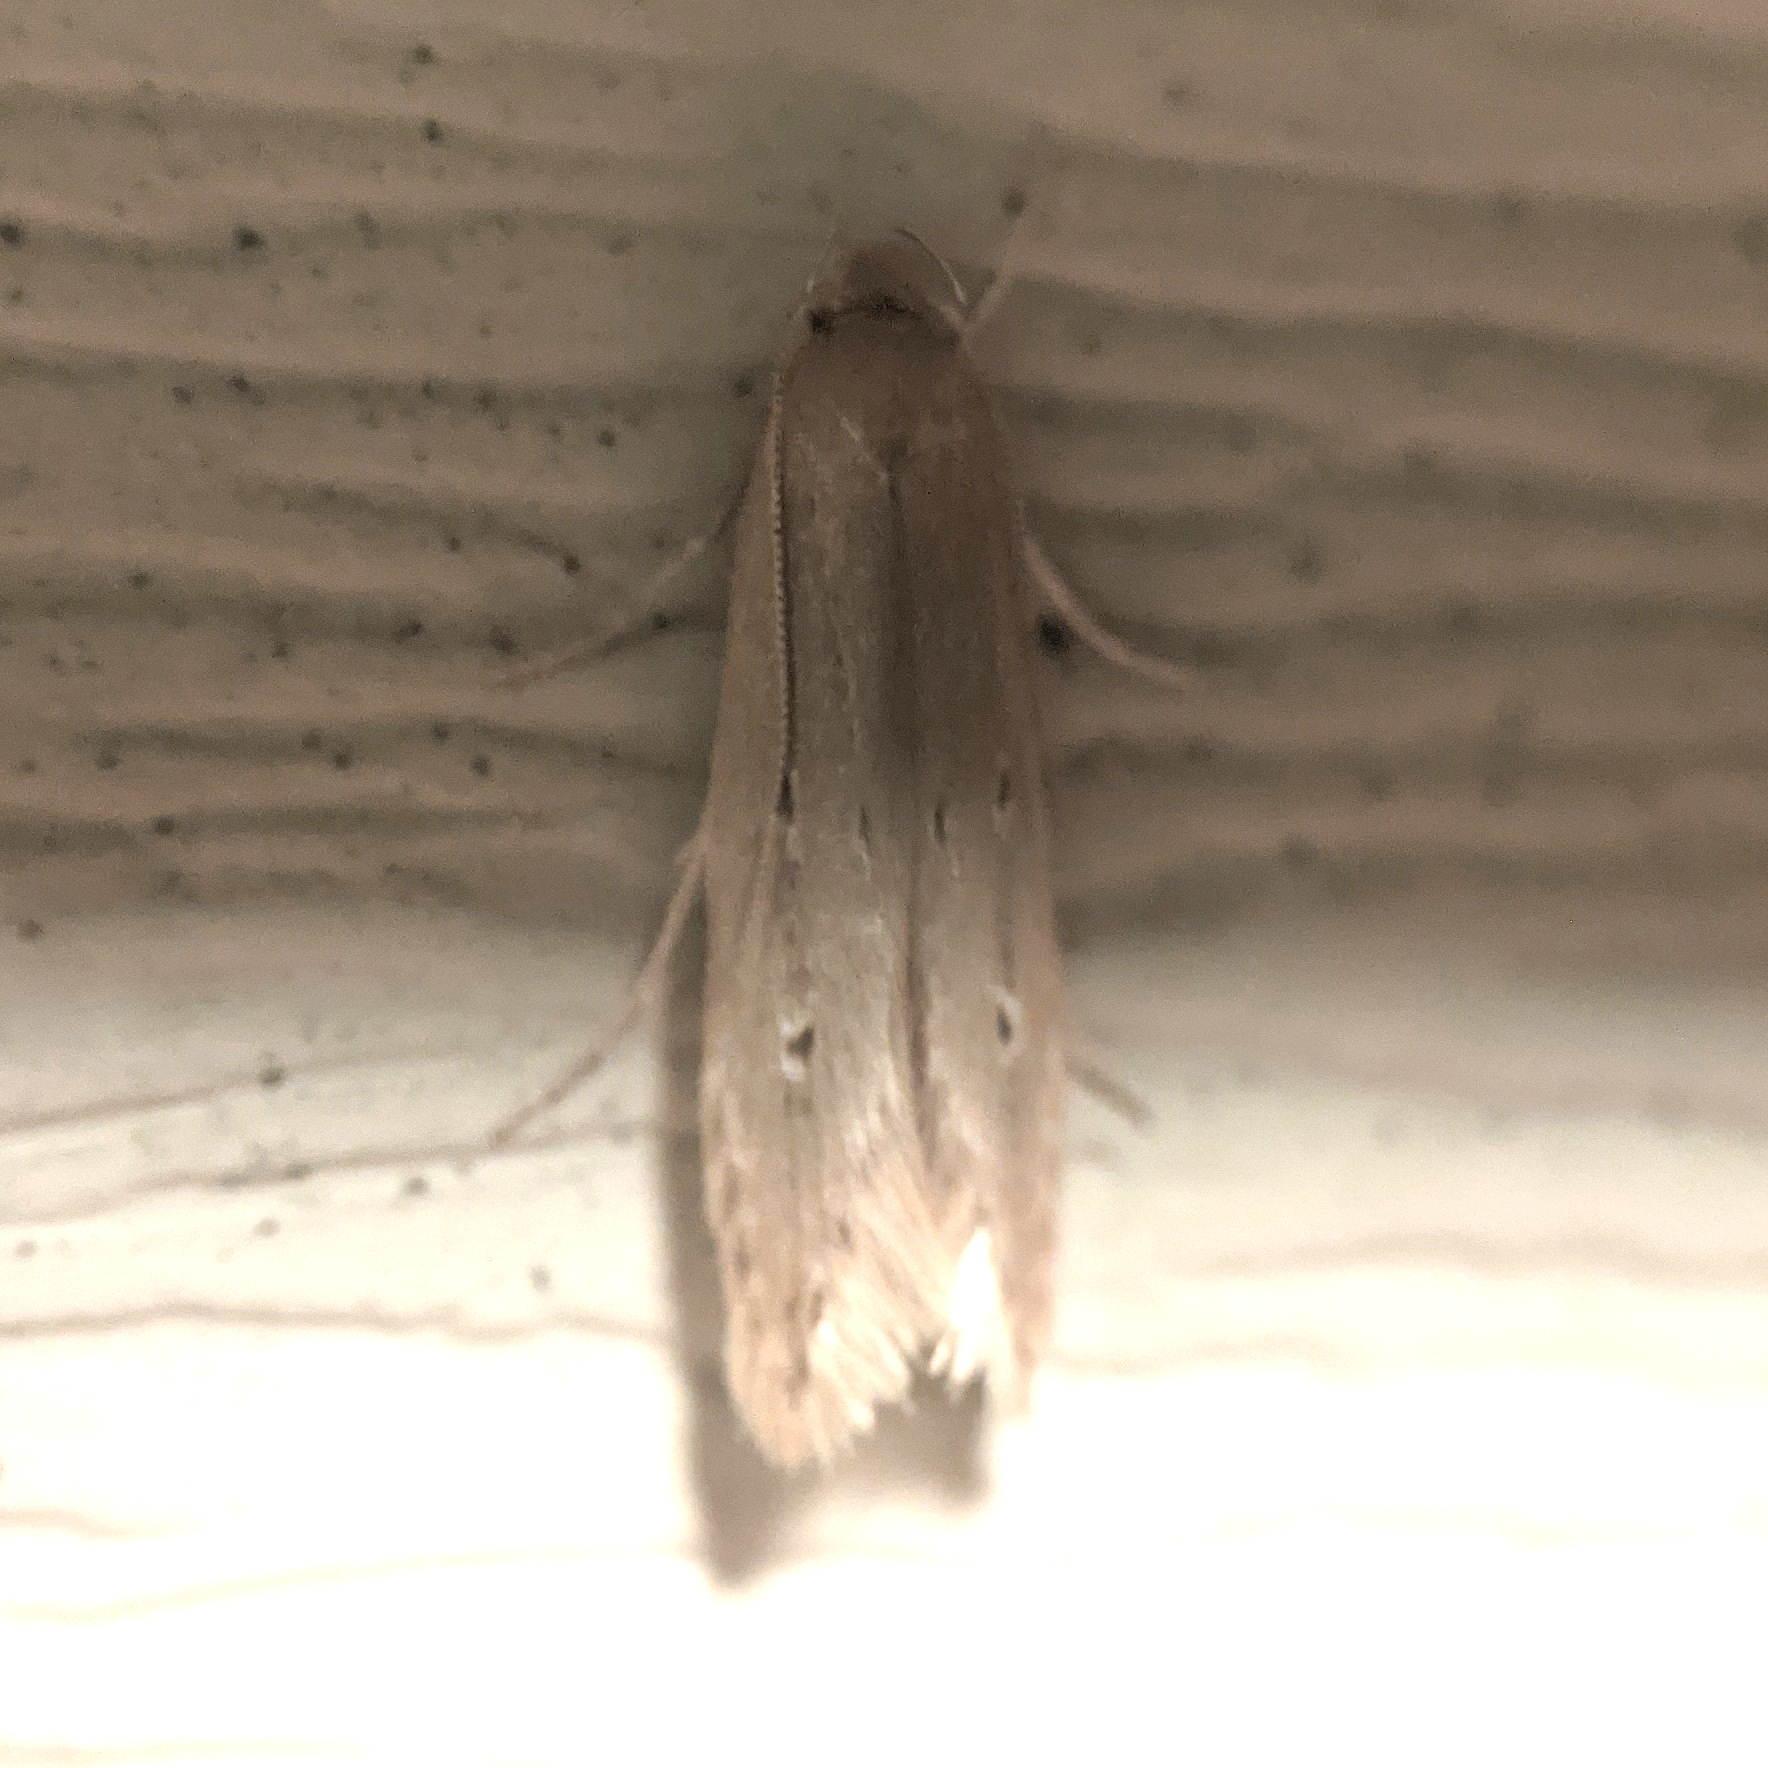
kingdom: Animalia
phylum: Arthropoda
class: Insecta
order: Lepidoptera
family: Cosmopterigidae
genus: Limnaecia
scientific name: Limnaecia phragmitella
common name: Bulrush cosmet
